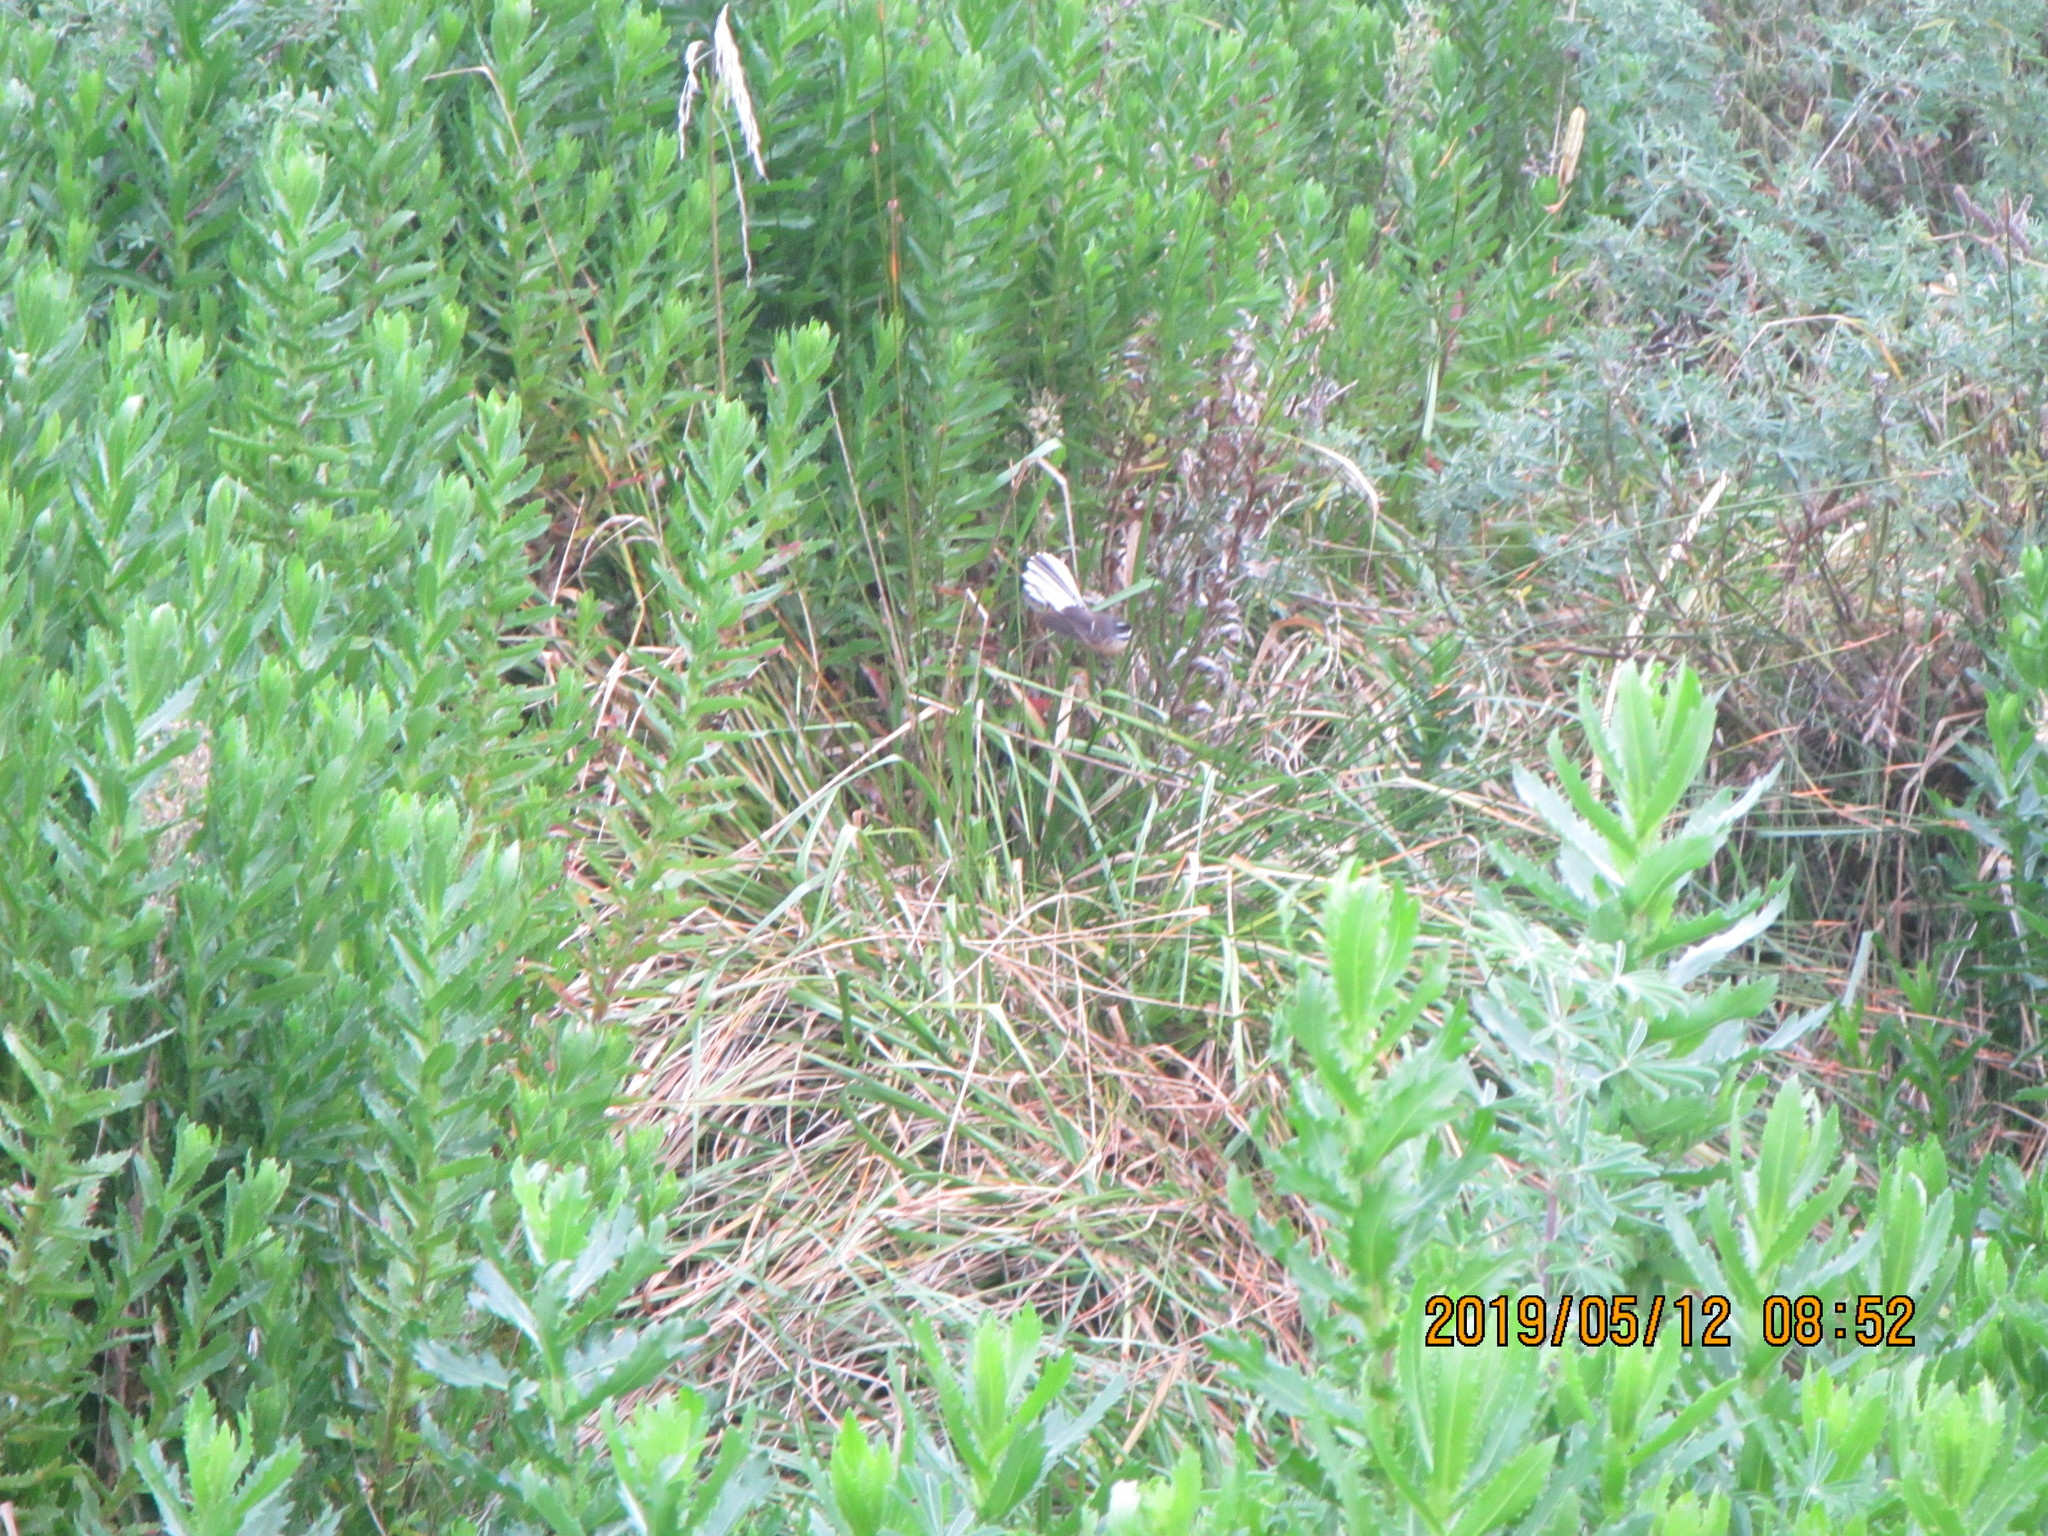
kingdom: Animalia
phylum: Chordata
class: Aves
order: Passeriformes
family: Rhipiduridae
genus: Rhipidura
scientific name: Rhipidura fuliginosa
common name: New zealand fantail
